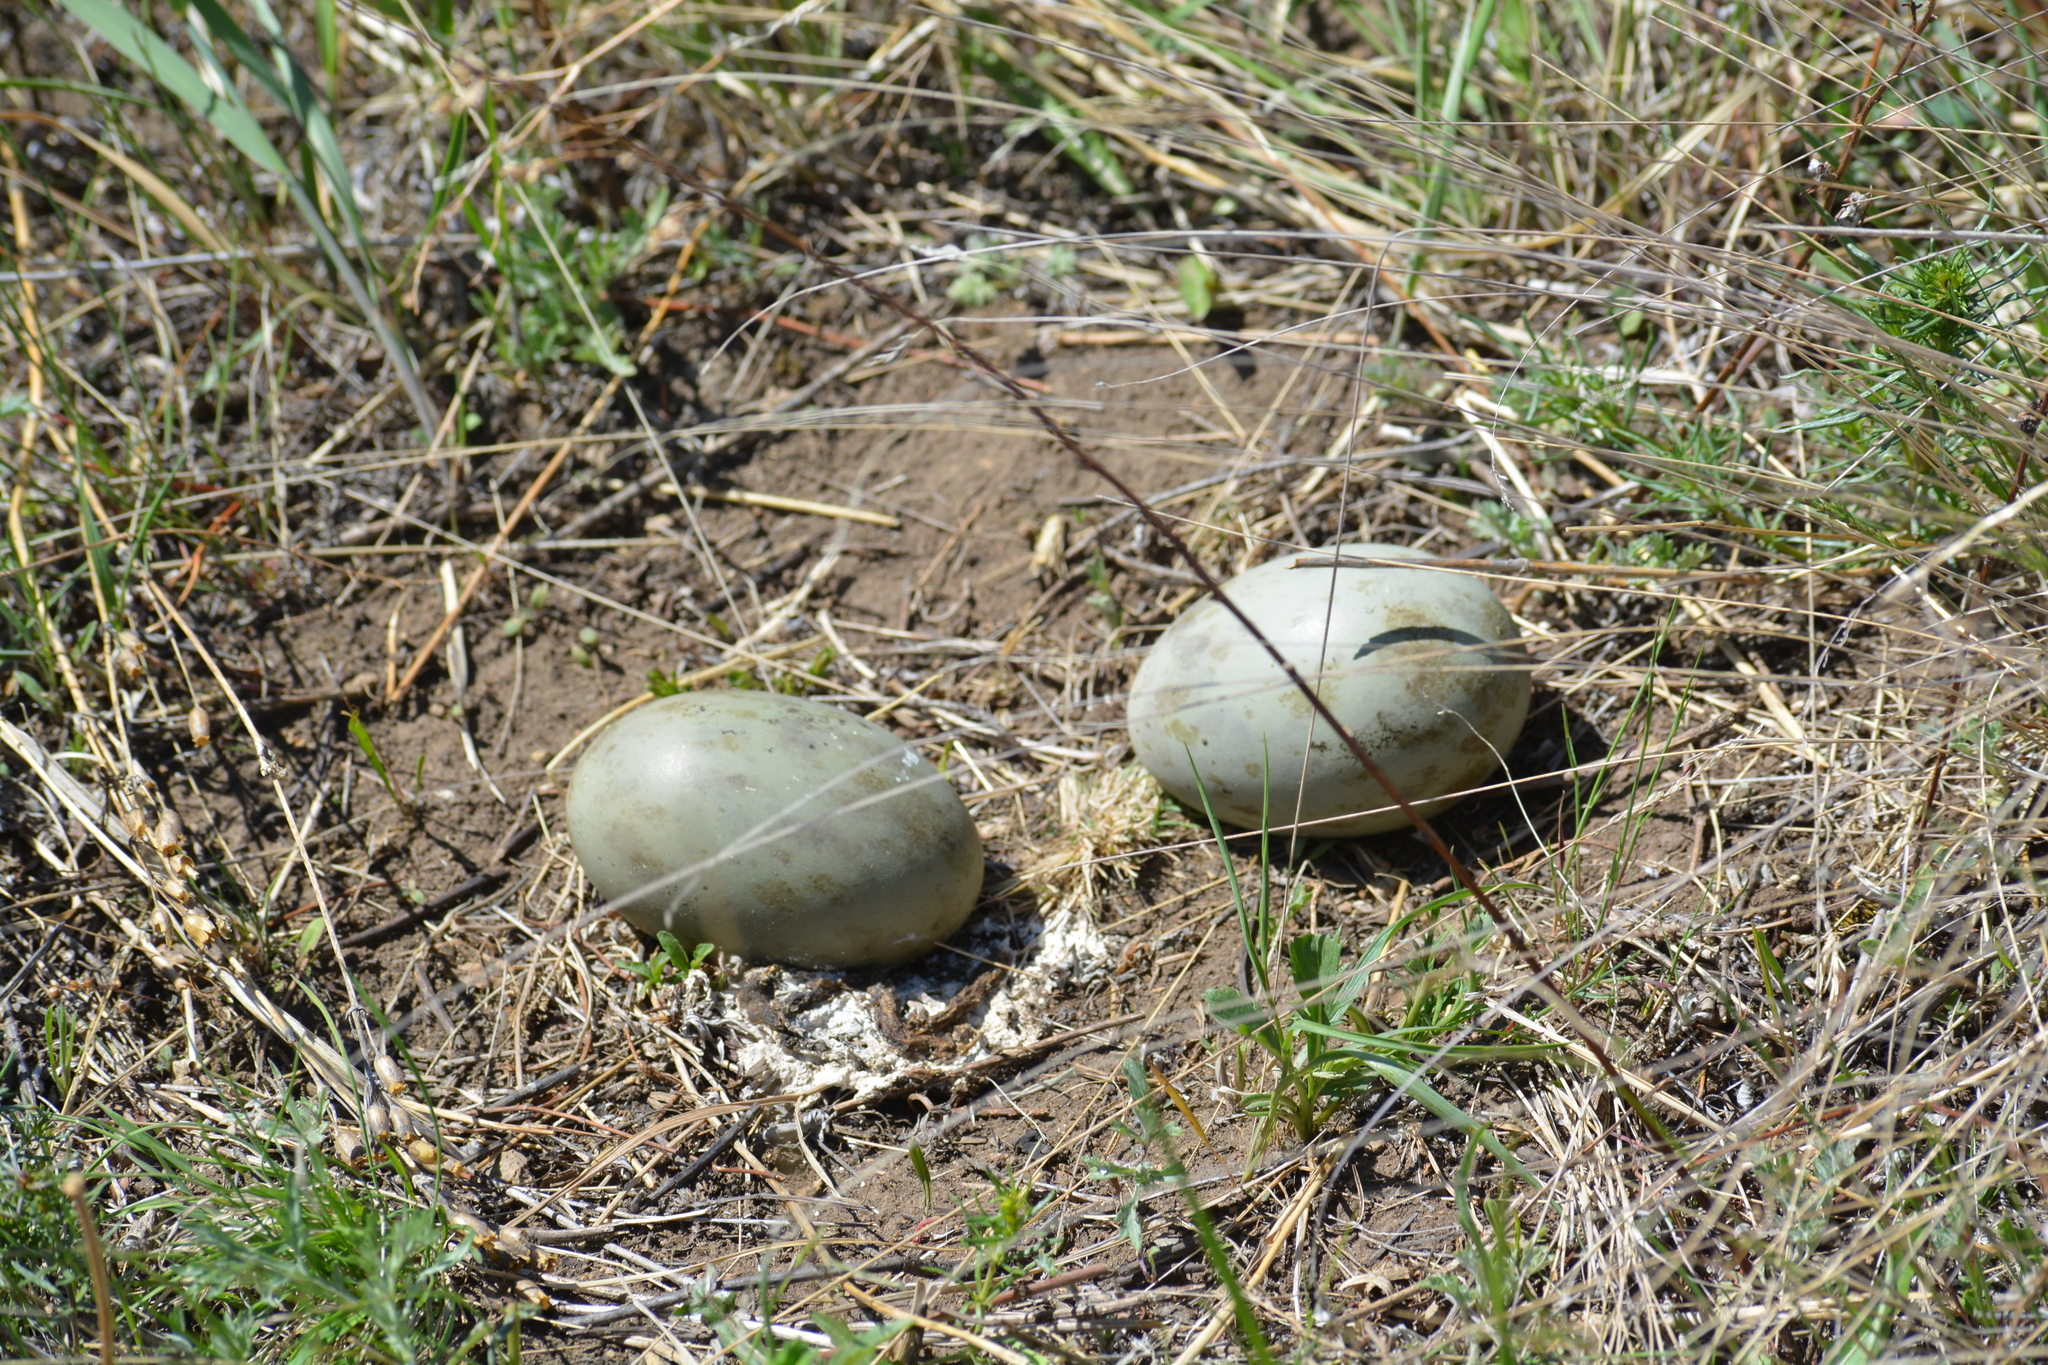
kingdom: Animalia
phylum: Chordata
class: Aves
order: Otidiformes
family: Otididae
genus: Otis
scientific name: Otis tarda
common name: Great bustard
